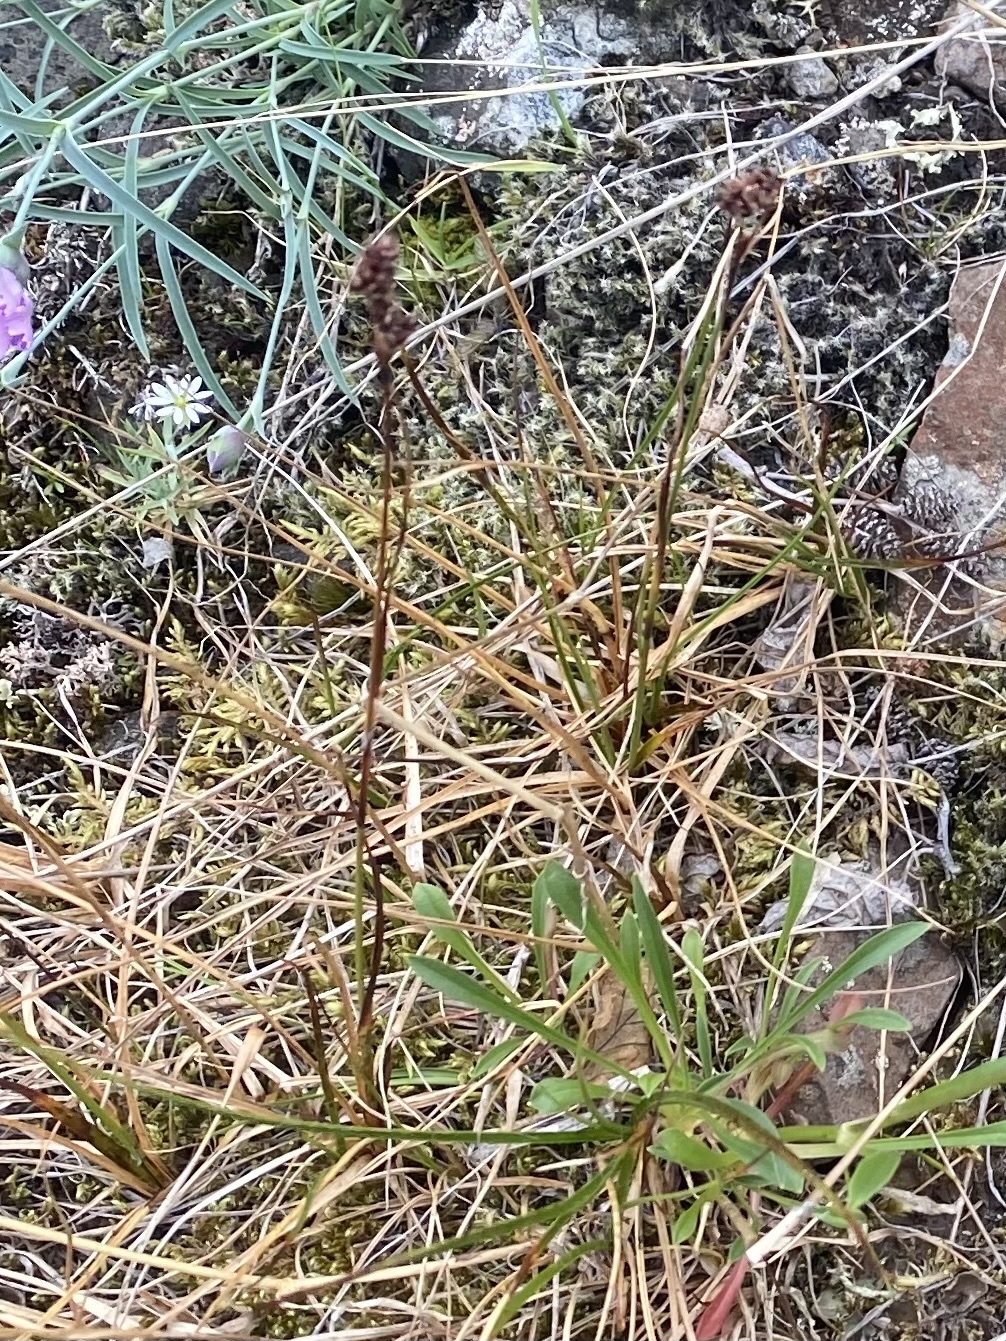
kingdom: Plantae
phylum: Tracheophyta
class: Liliopsida
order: Poales
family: Juncaceae
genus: Luzula
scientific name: Luzula confusa
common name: Northern wood rush
